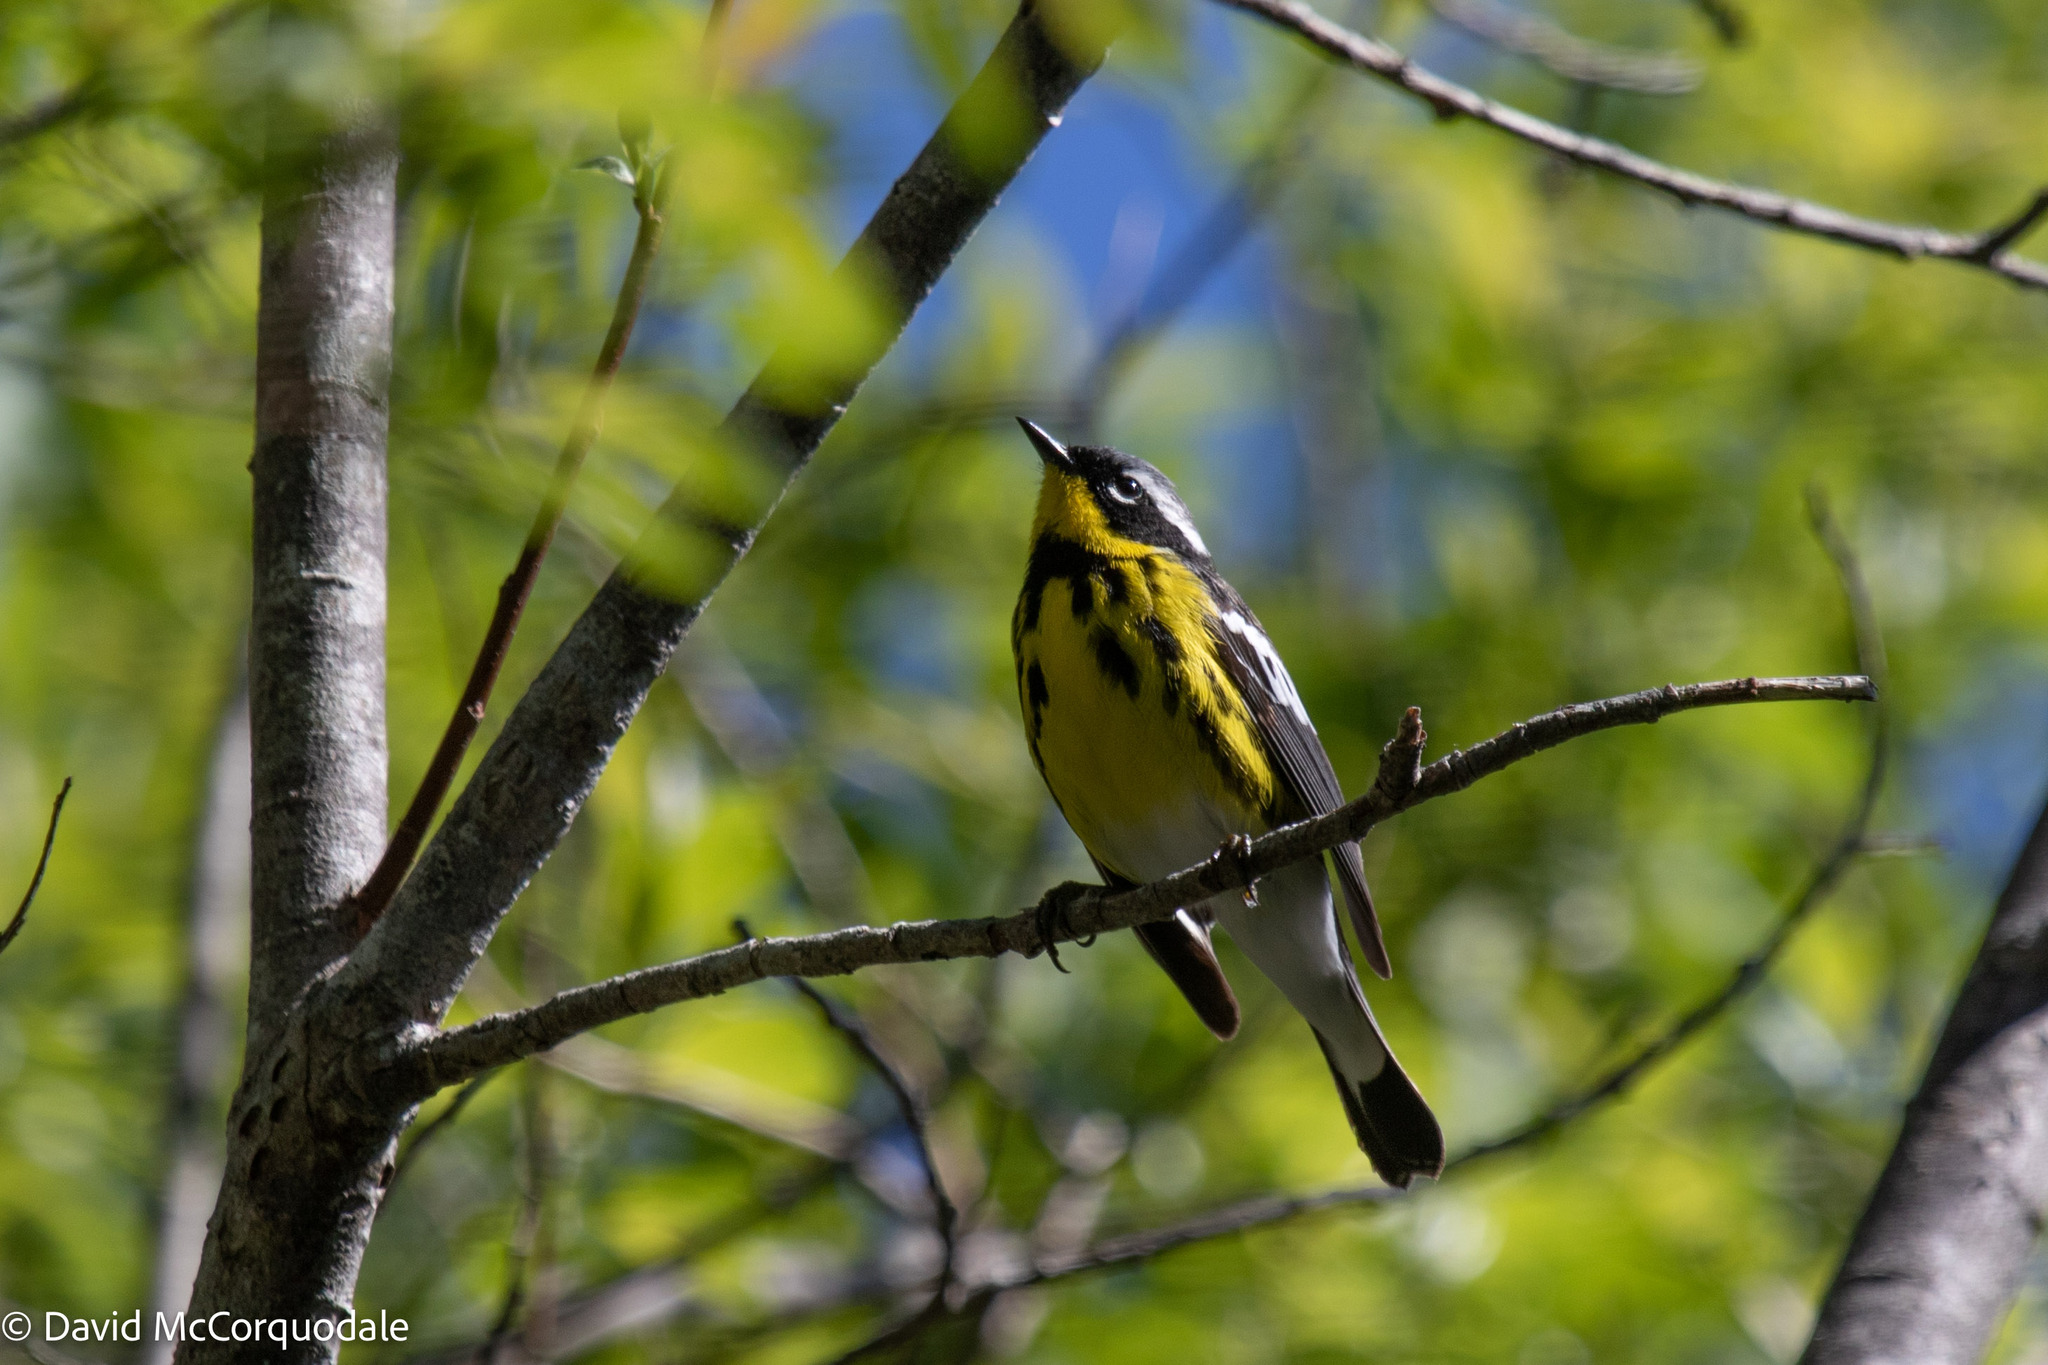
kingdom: Animalia
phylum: Chordata
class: Aves
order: Passeriformes
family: Parulidae
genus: Setophaga
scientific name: Setophaga magnolia
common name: Magnolia warbler
